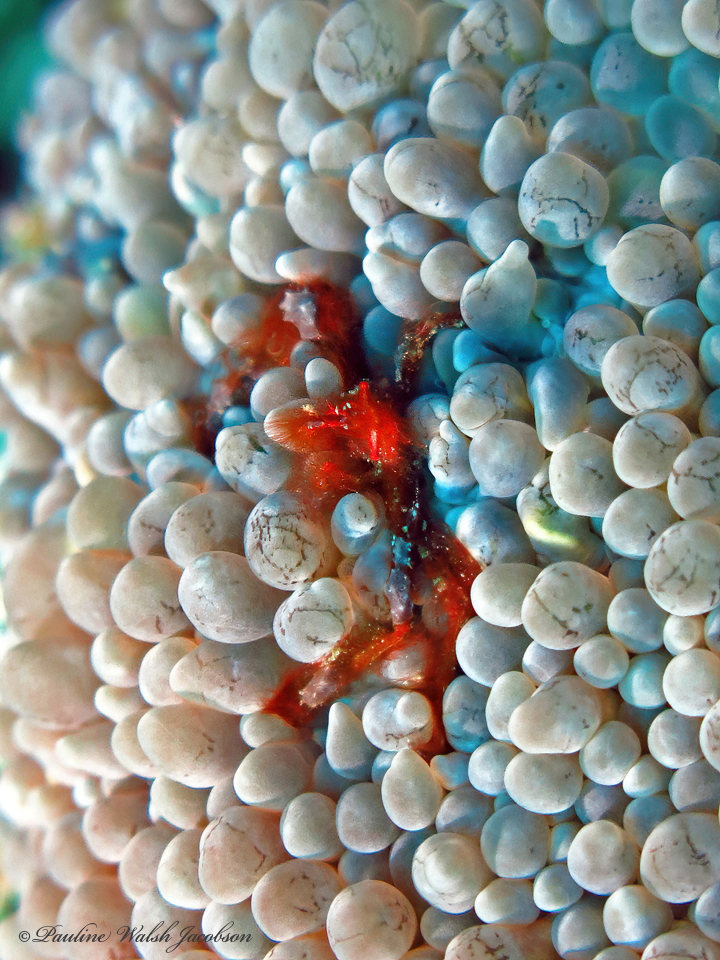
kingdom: Animalia
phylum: Arthropoda
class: Malacostraca
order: Decapoda
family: Inachidae
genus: Achaeus
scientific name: Achaeus japonicus
